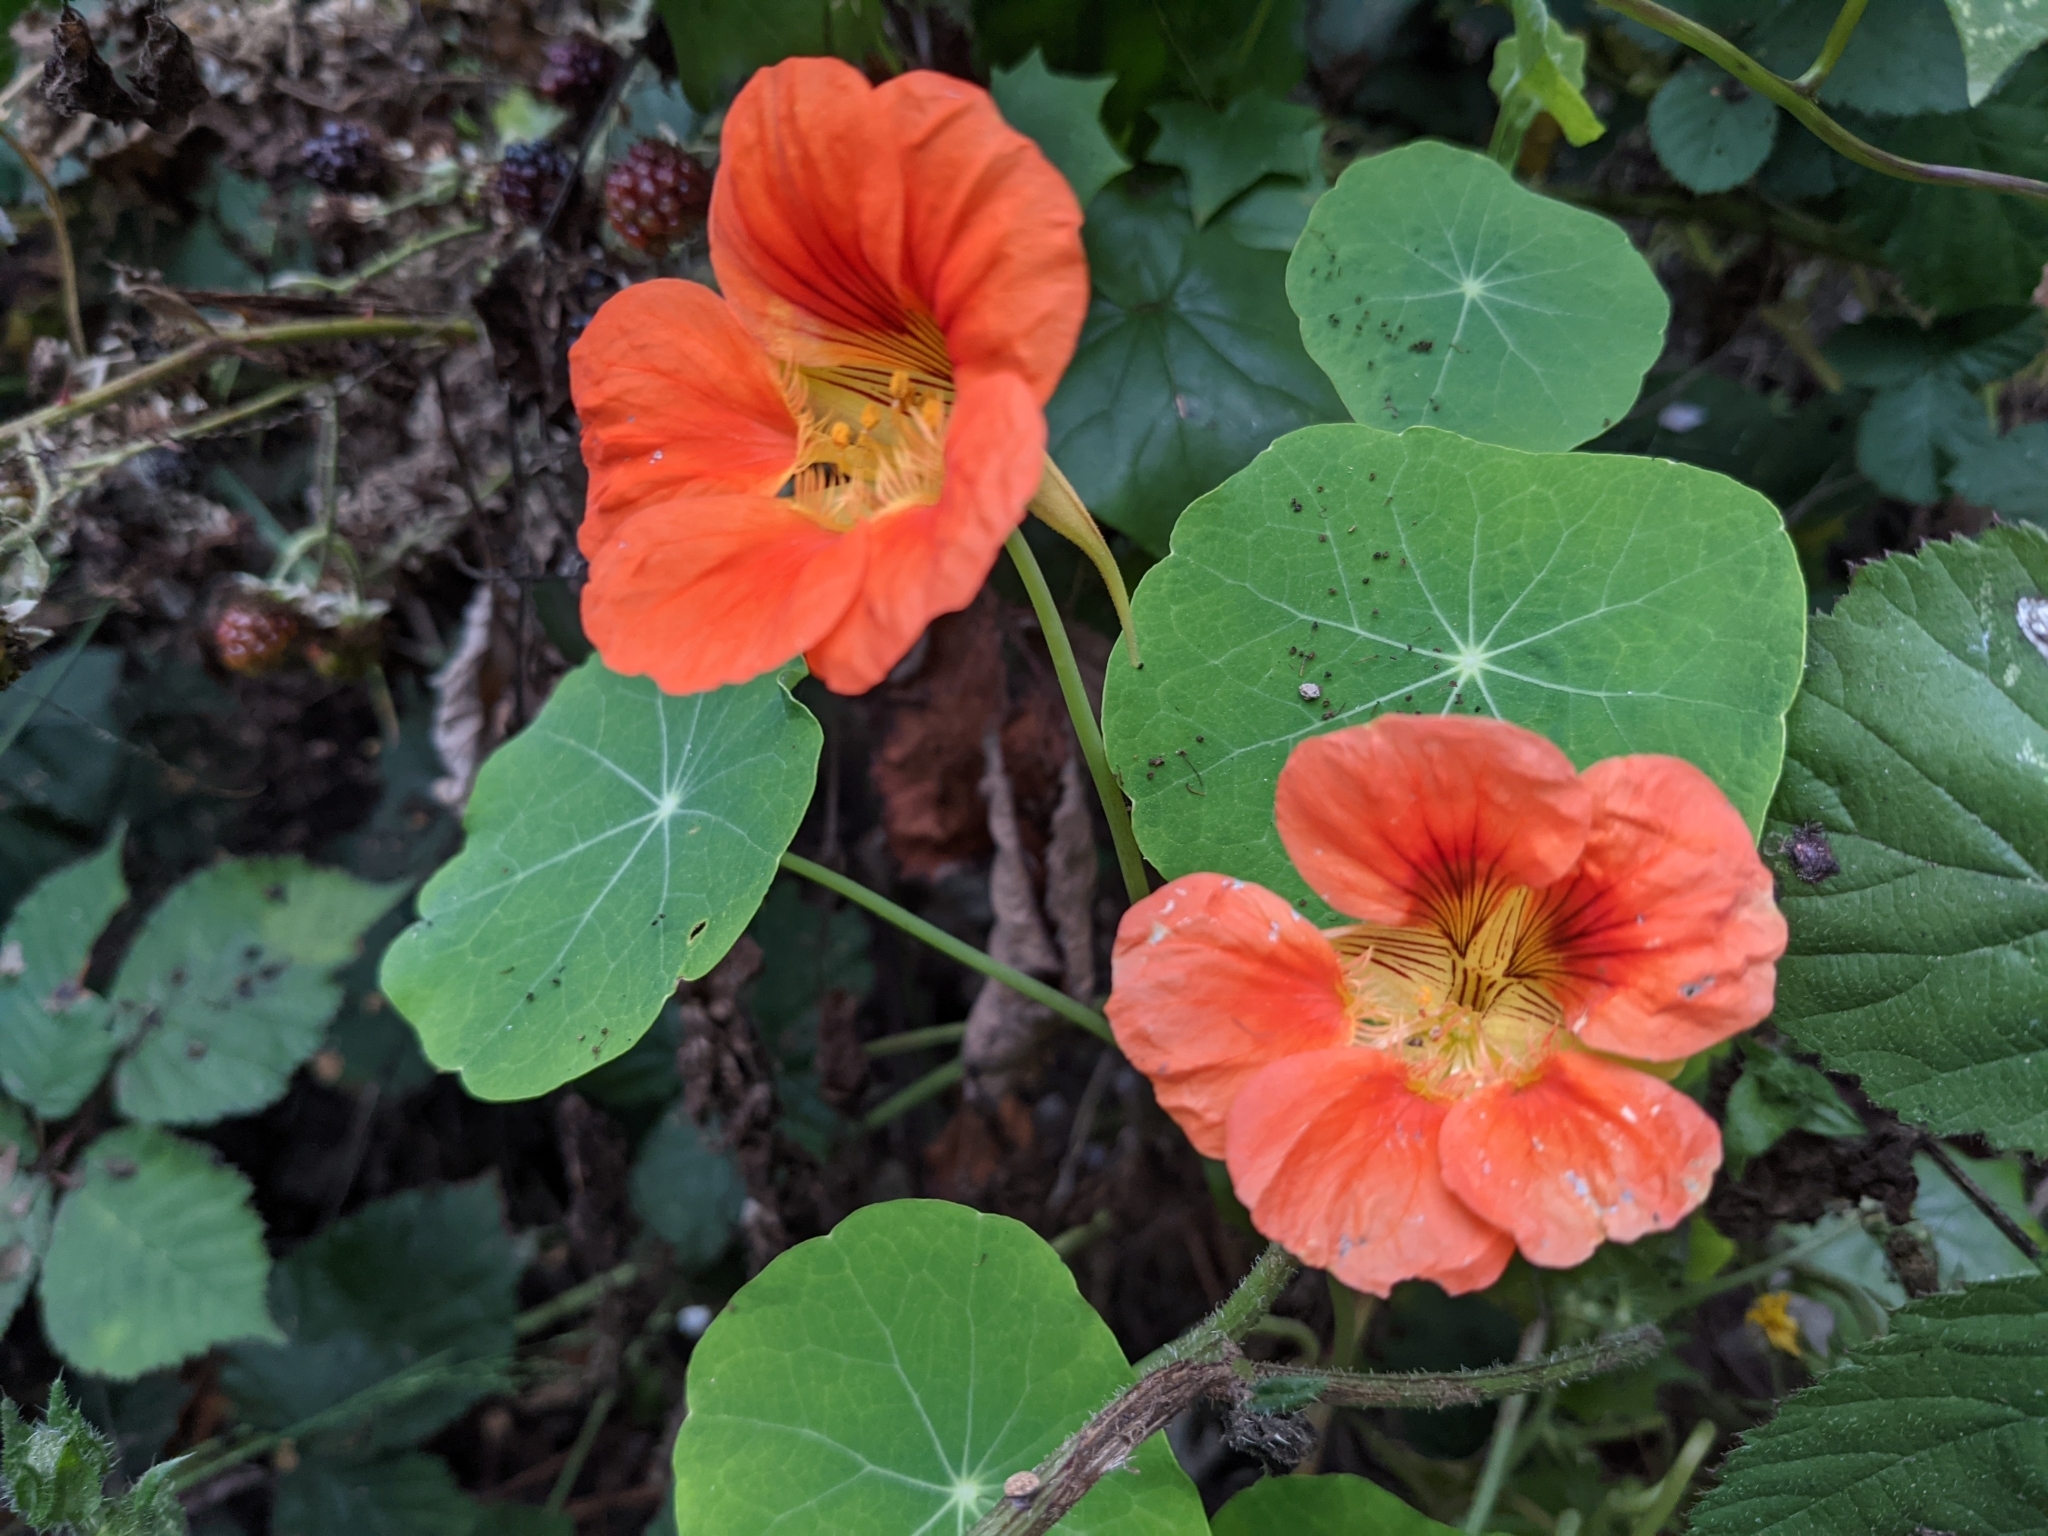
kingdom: Plantae
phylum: Tracheophyta
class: Magnoliopsida
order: Brassicales
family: Tropaeolaceae
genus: Tropaeolum
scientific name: Tropaeolum majus
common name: Nasturtium
